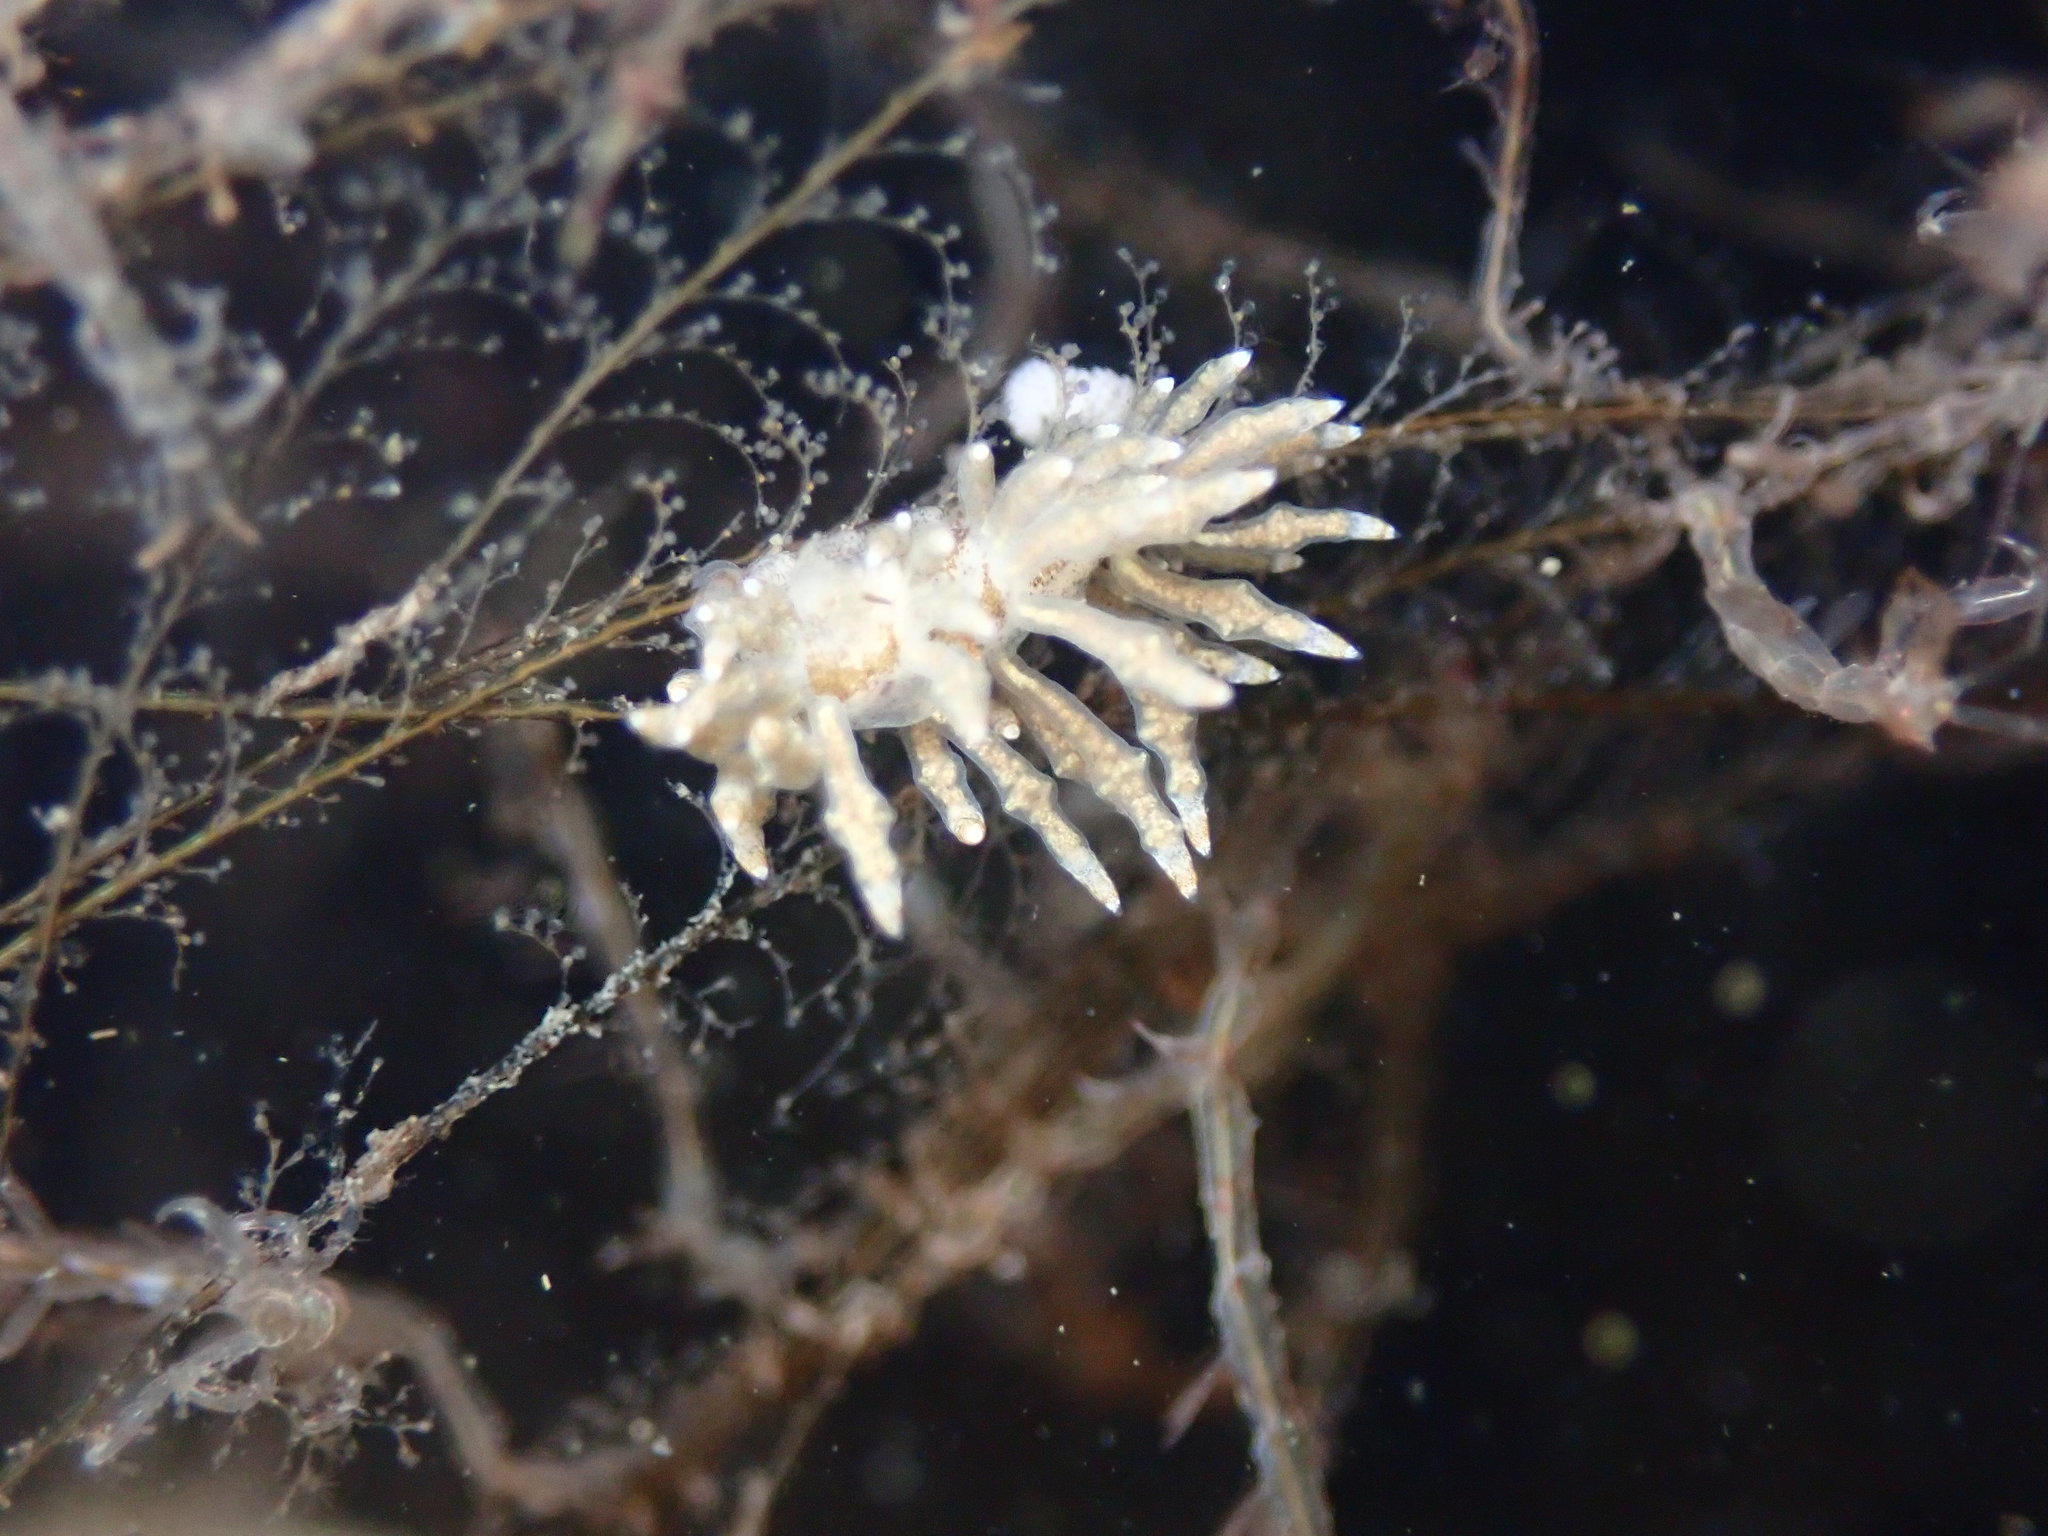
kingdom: Animalia
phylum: Mollusca
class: Gastropoda
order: Nudibranchia
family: Eubranchidae
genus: Eubranchus
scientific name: Eubranchus rustyus
